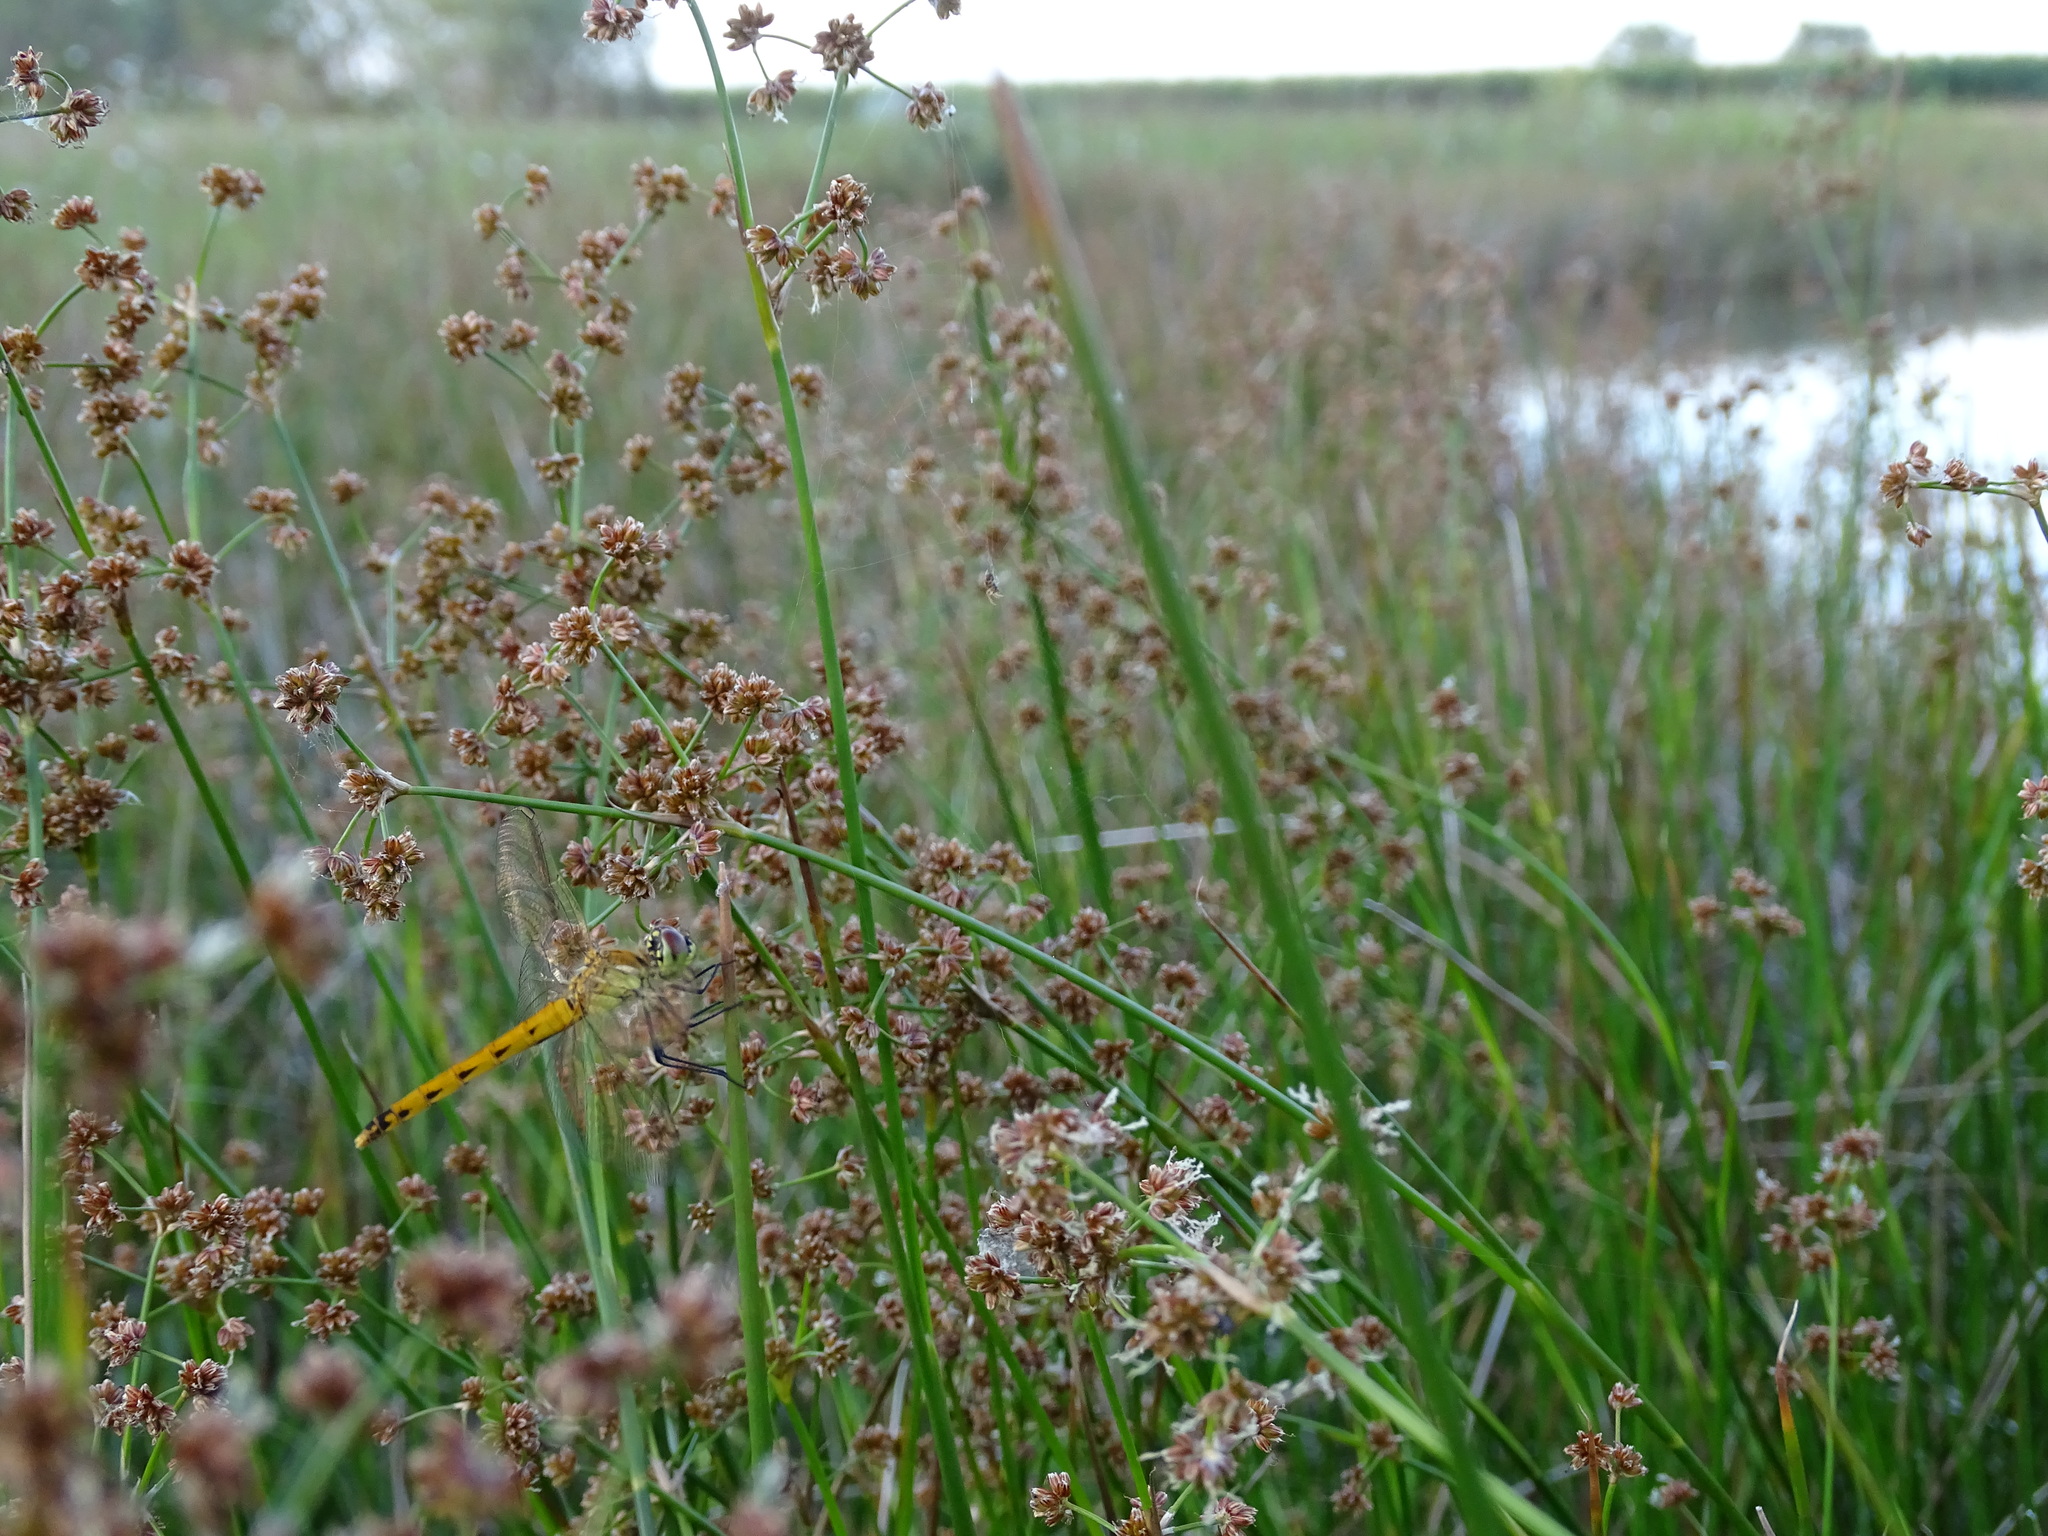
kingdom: Animalia
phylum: Arthropoda
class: Insecta
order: Odonata
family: Libellulidae
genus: Sympetrum
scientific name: Sympetrum depressiusculum
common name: Spotted darter
